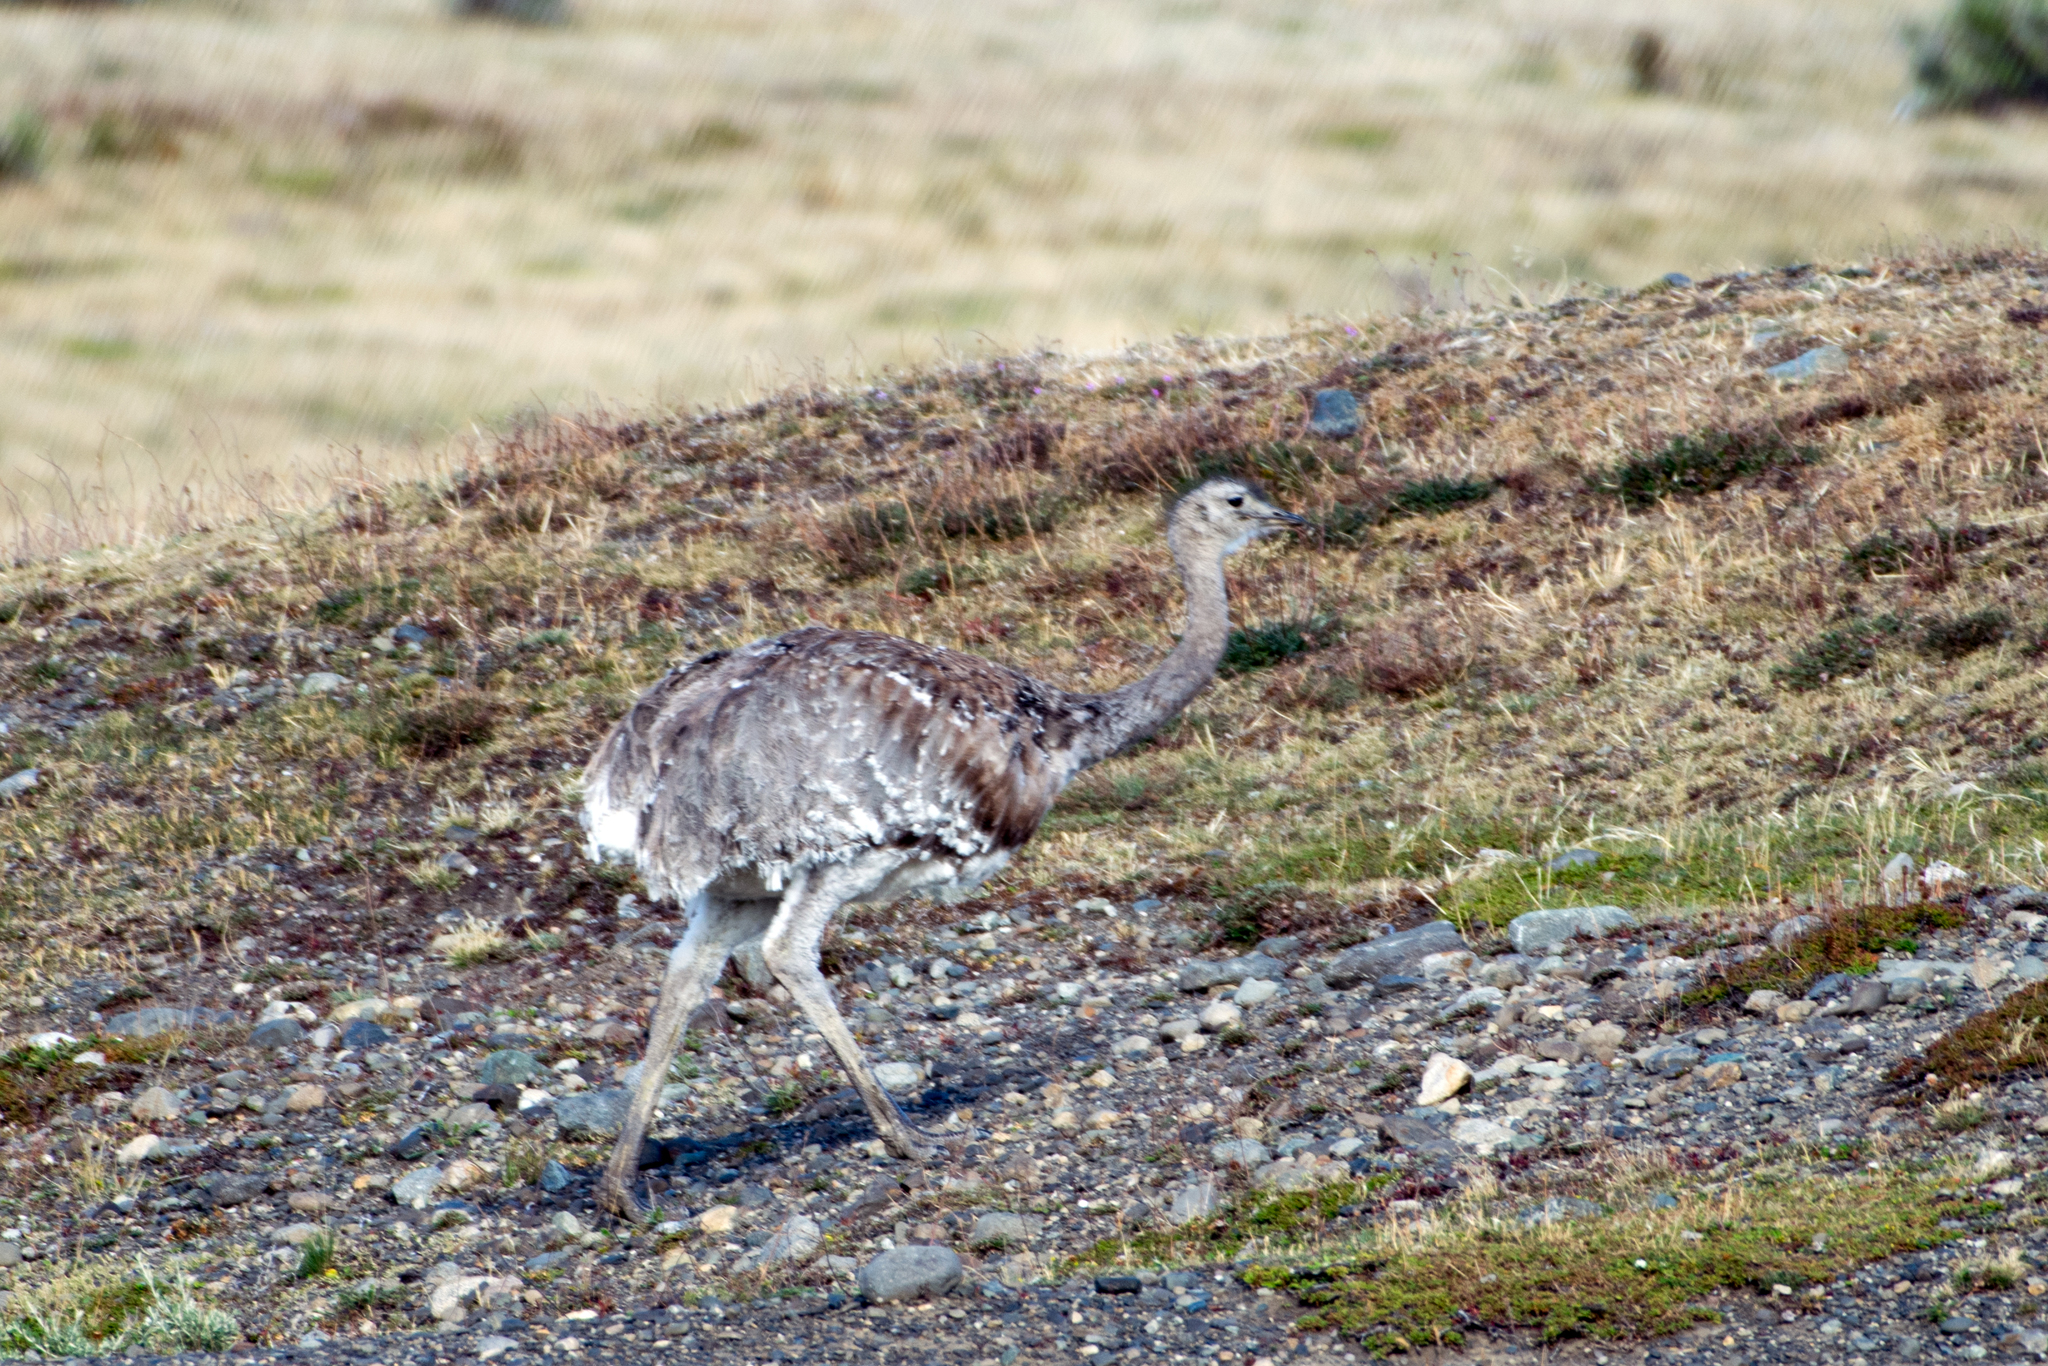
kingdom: Animalia
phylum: Chordata
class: Aves
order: Rheiformes
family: Rheidae
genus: Rhea
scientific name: Rhea pennata
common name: Lesser rhea
